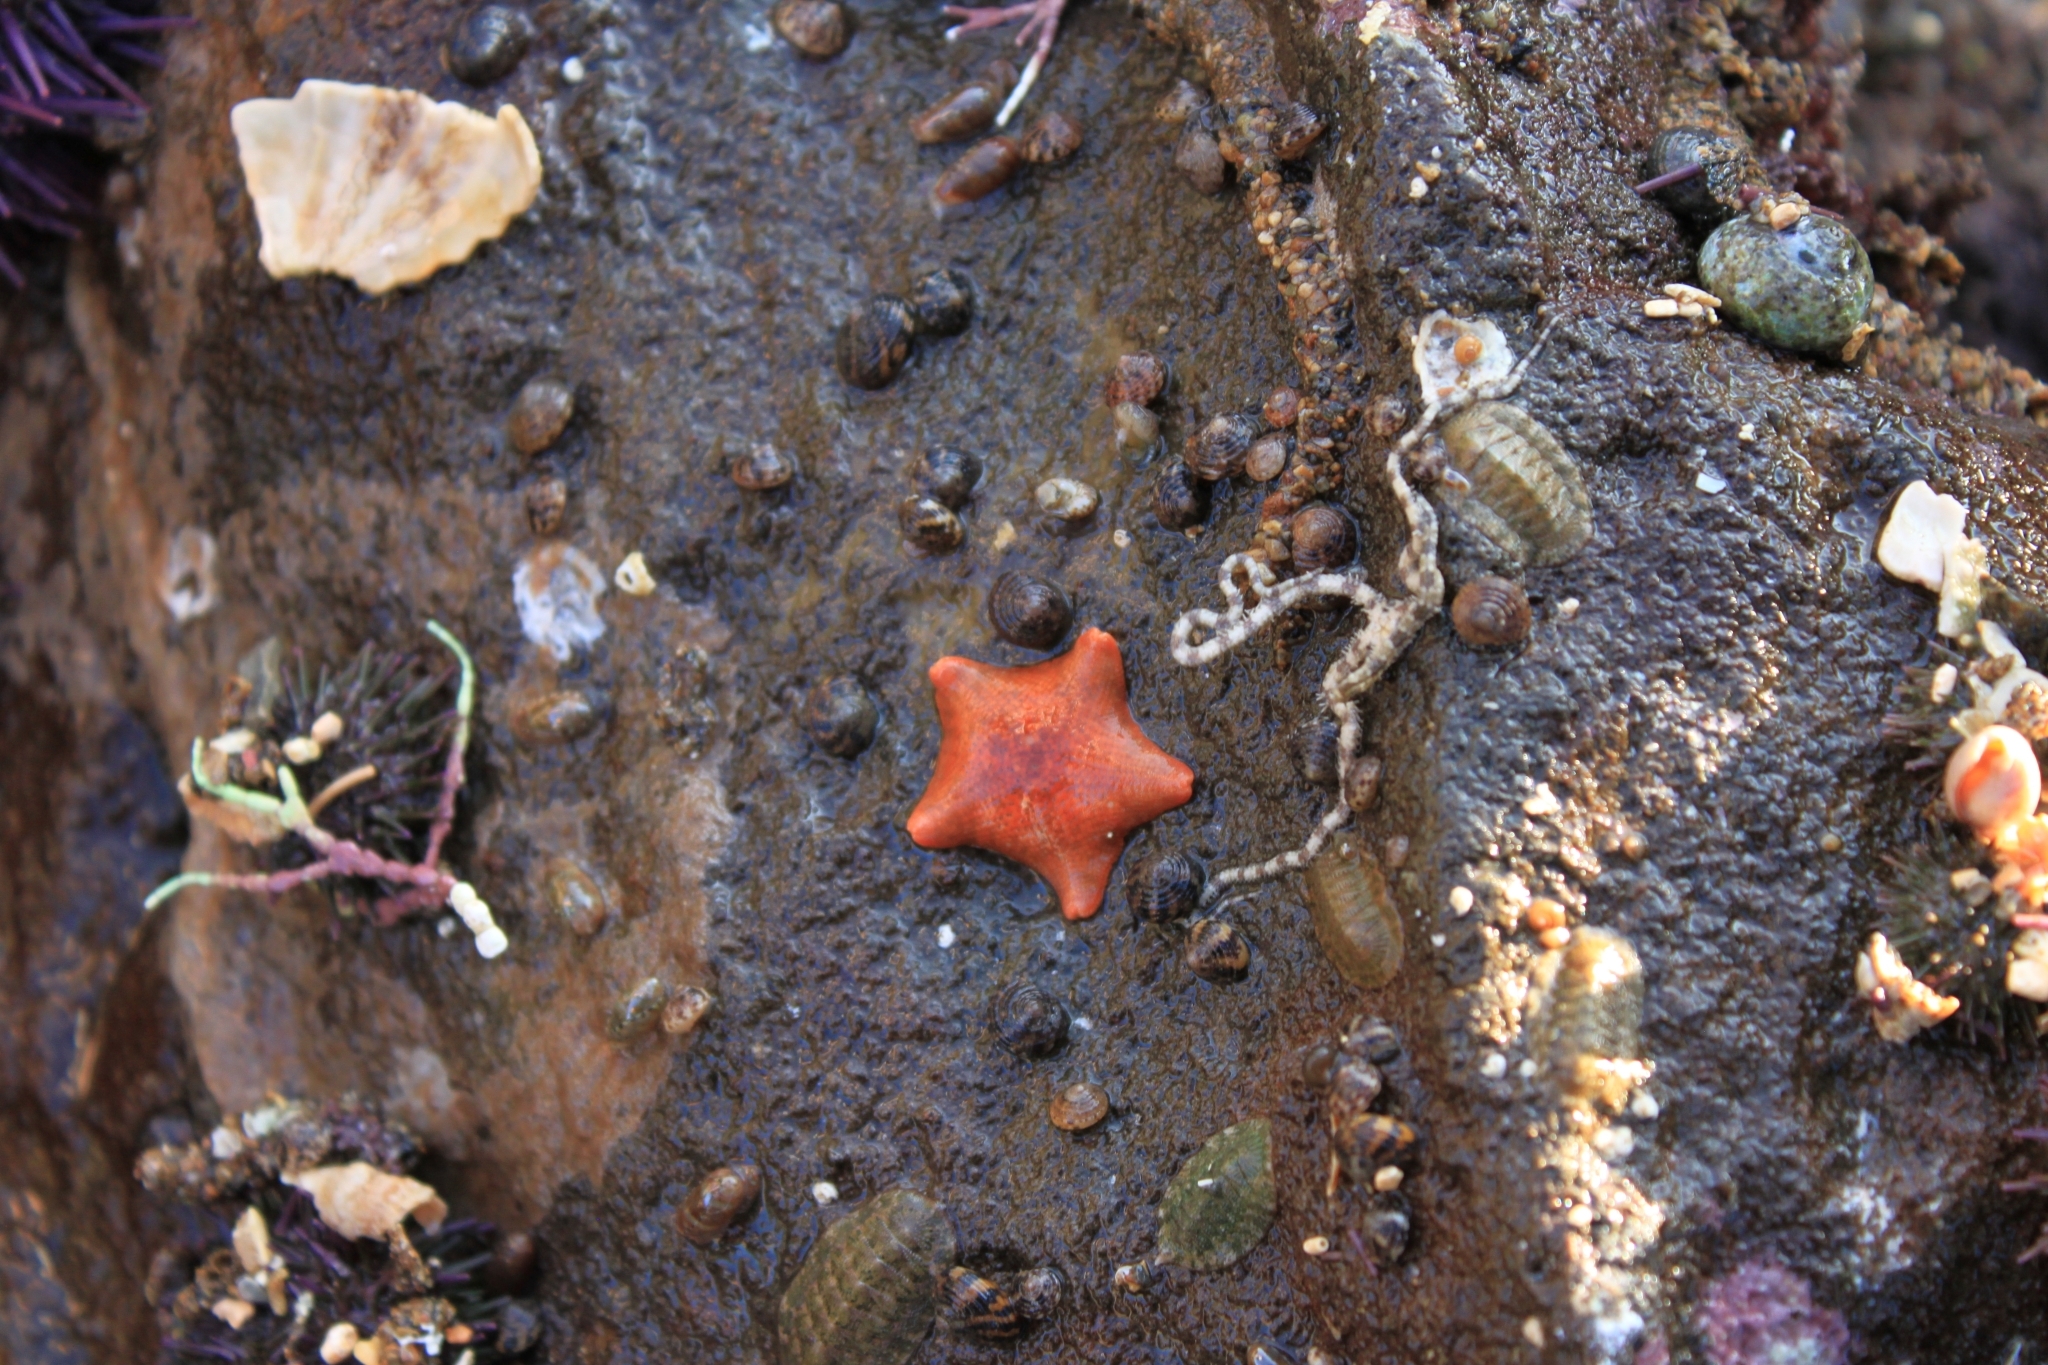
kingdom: Animalia
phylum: Echinodermata
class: Asteroidea
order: Valvatida
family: Asterinidae
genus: Patiria
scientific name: Patiria miniata
